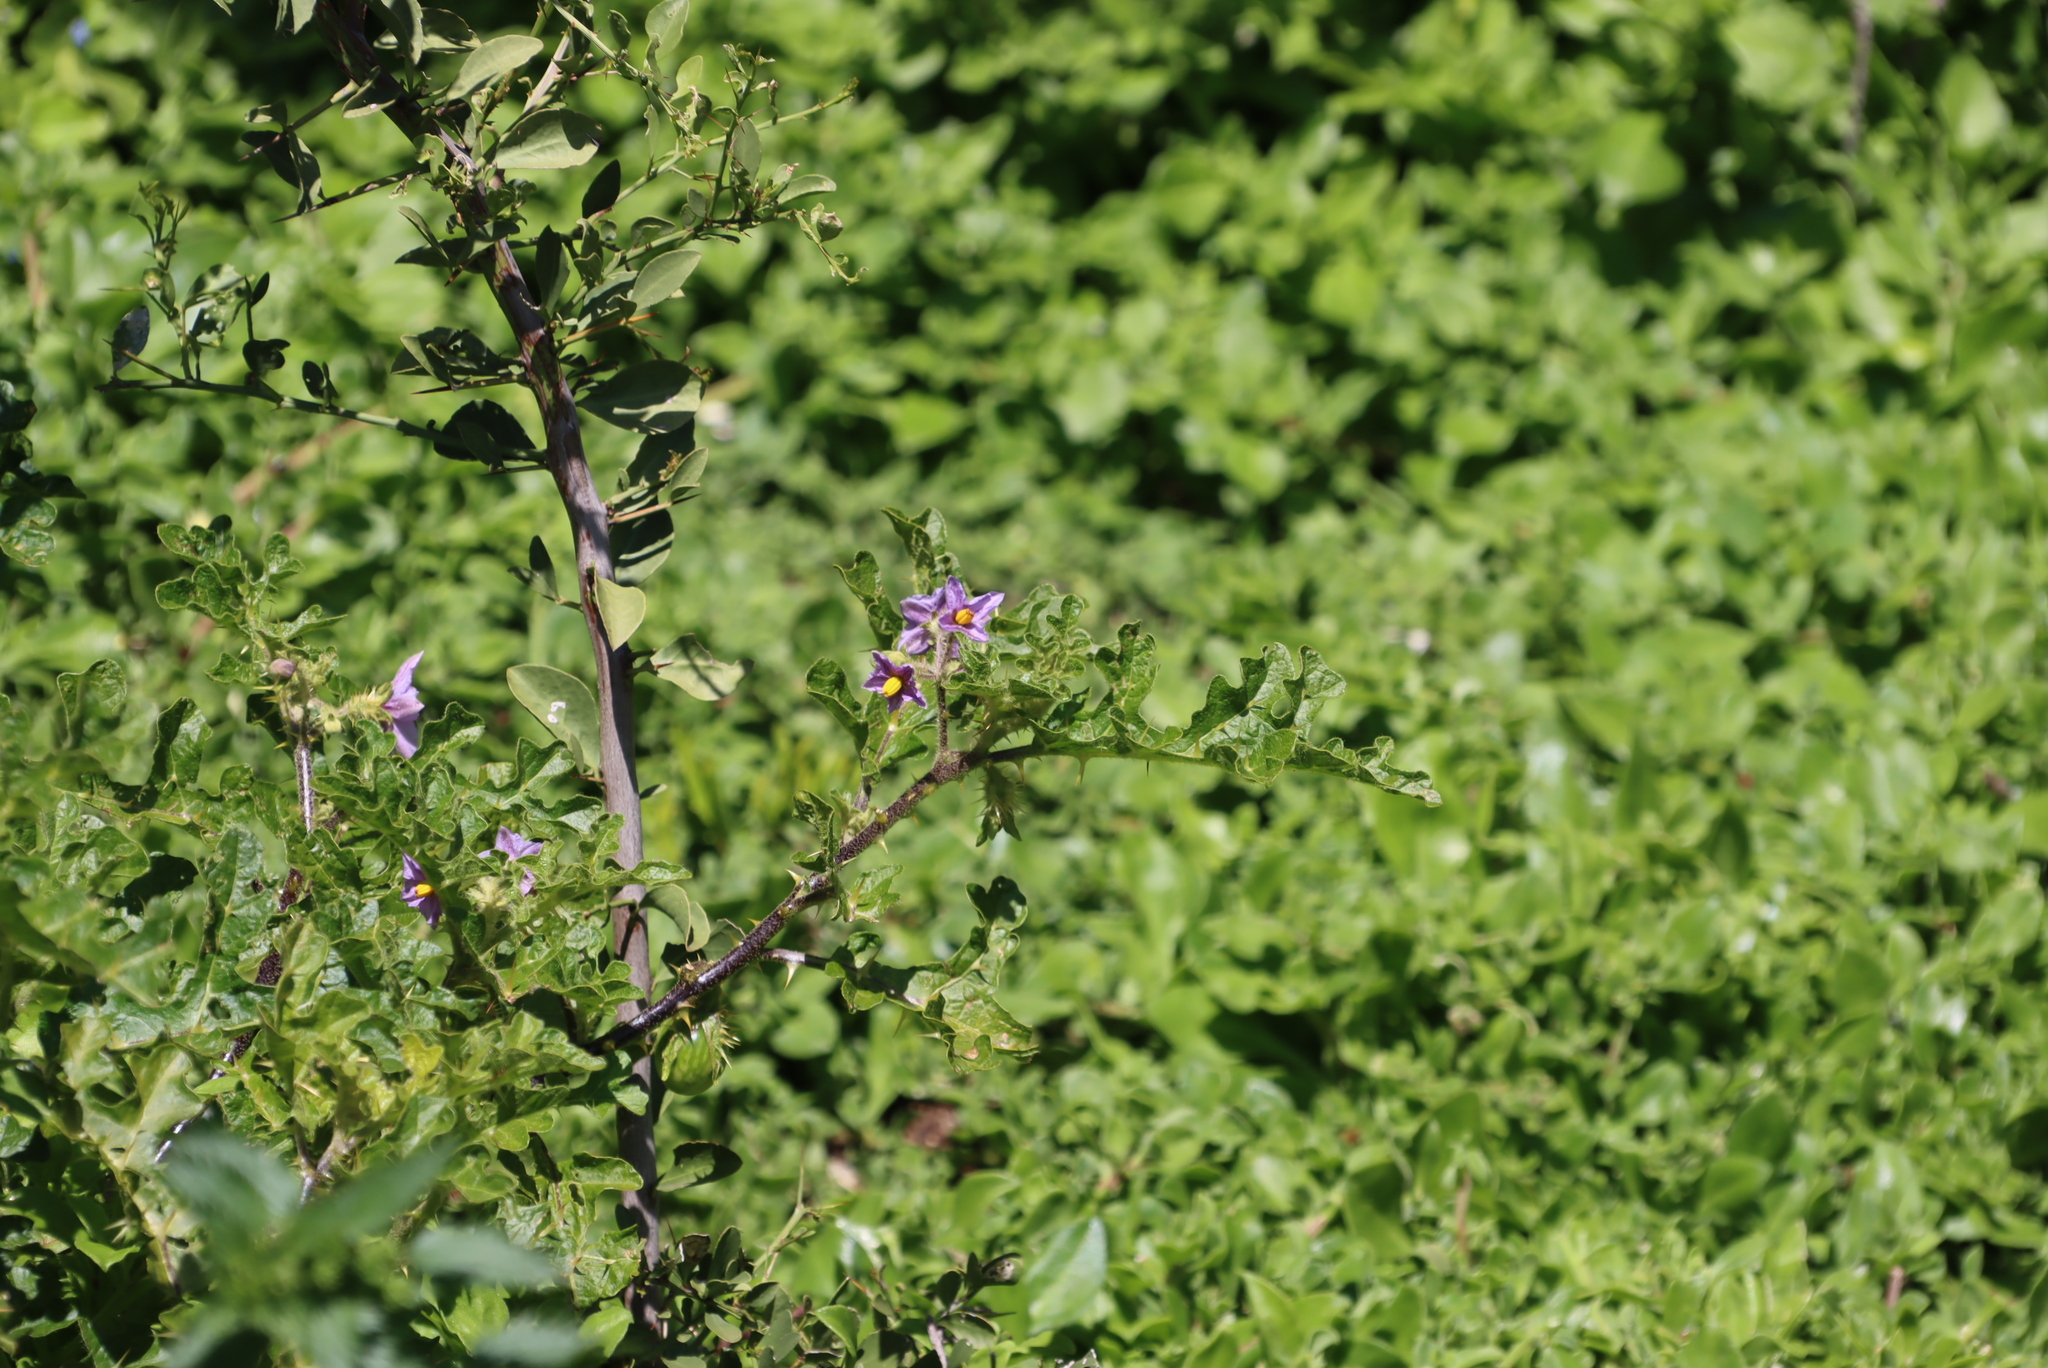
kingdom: Plantae
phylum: Tracheophyta
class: Magnoliopsida
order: Solanales
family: Solanaceae
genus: Solanum
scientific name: Solanum linnaeanum
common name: Nightshade
